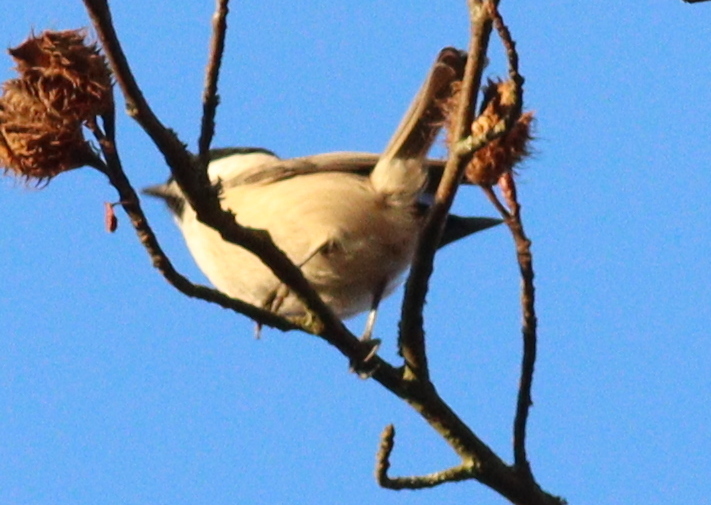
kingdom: Animalia
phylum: Chordata
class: Aves
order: Passeriformes
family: Paridae
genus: Poecile
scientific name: Poecile palustris
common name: Marsh tit
